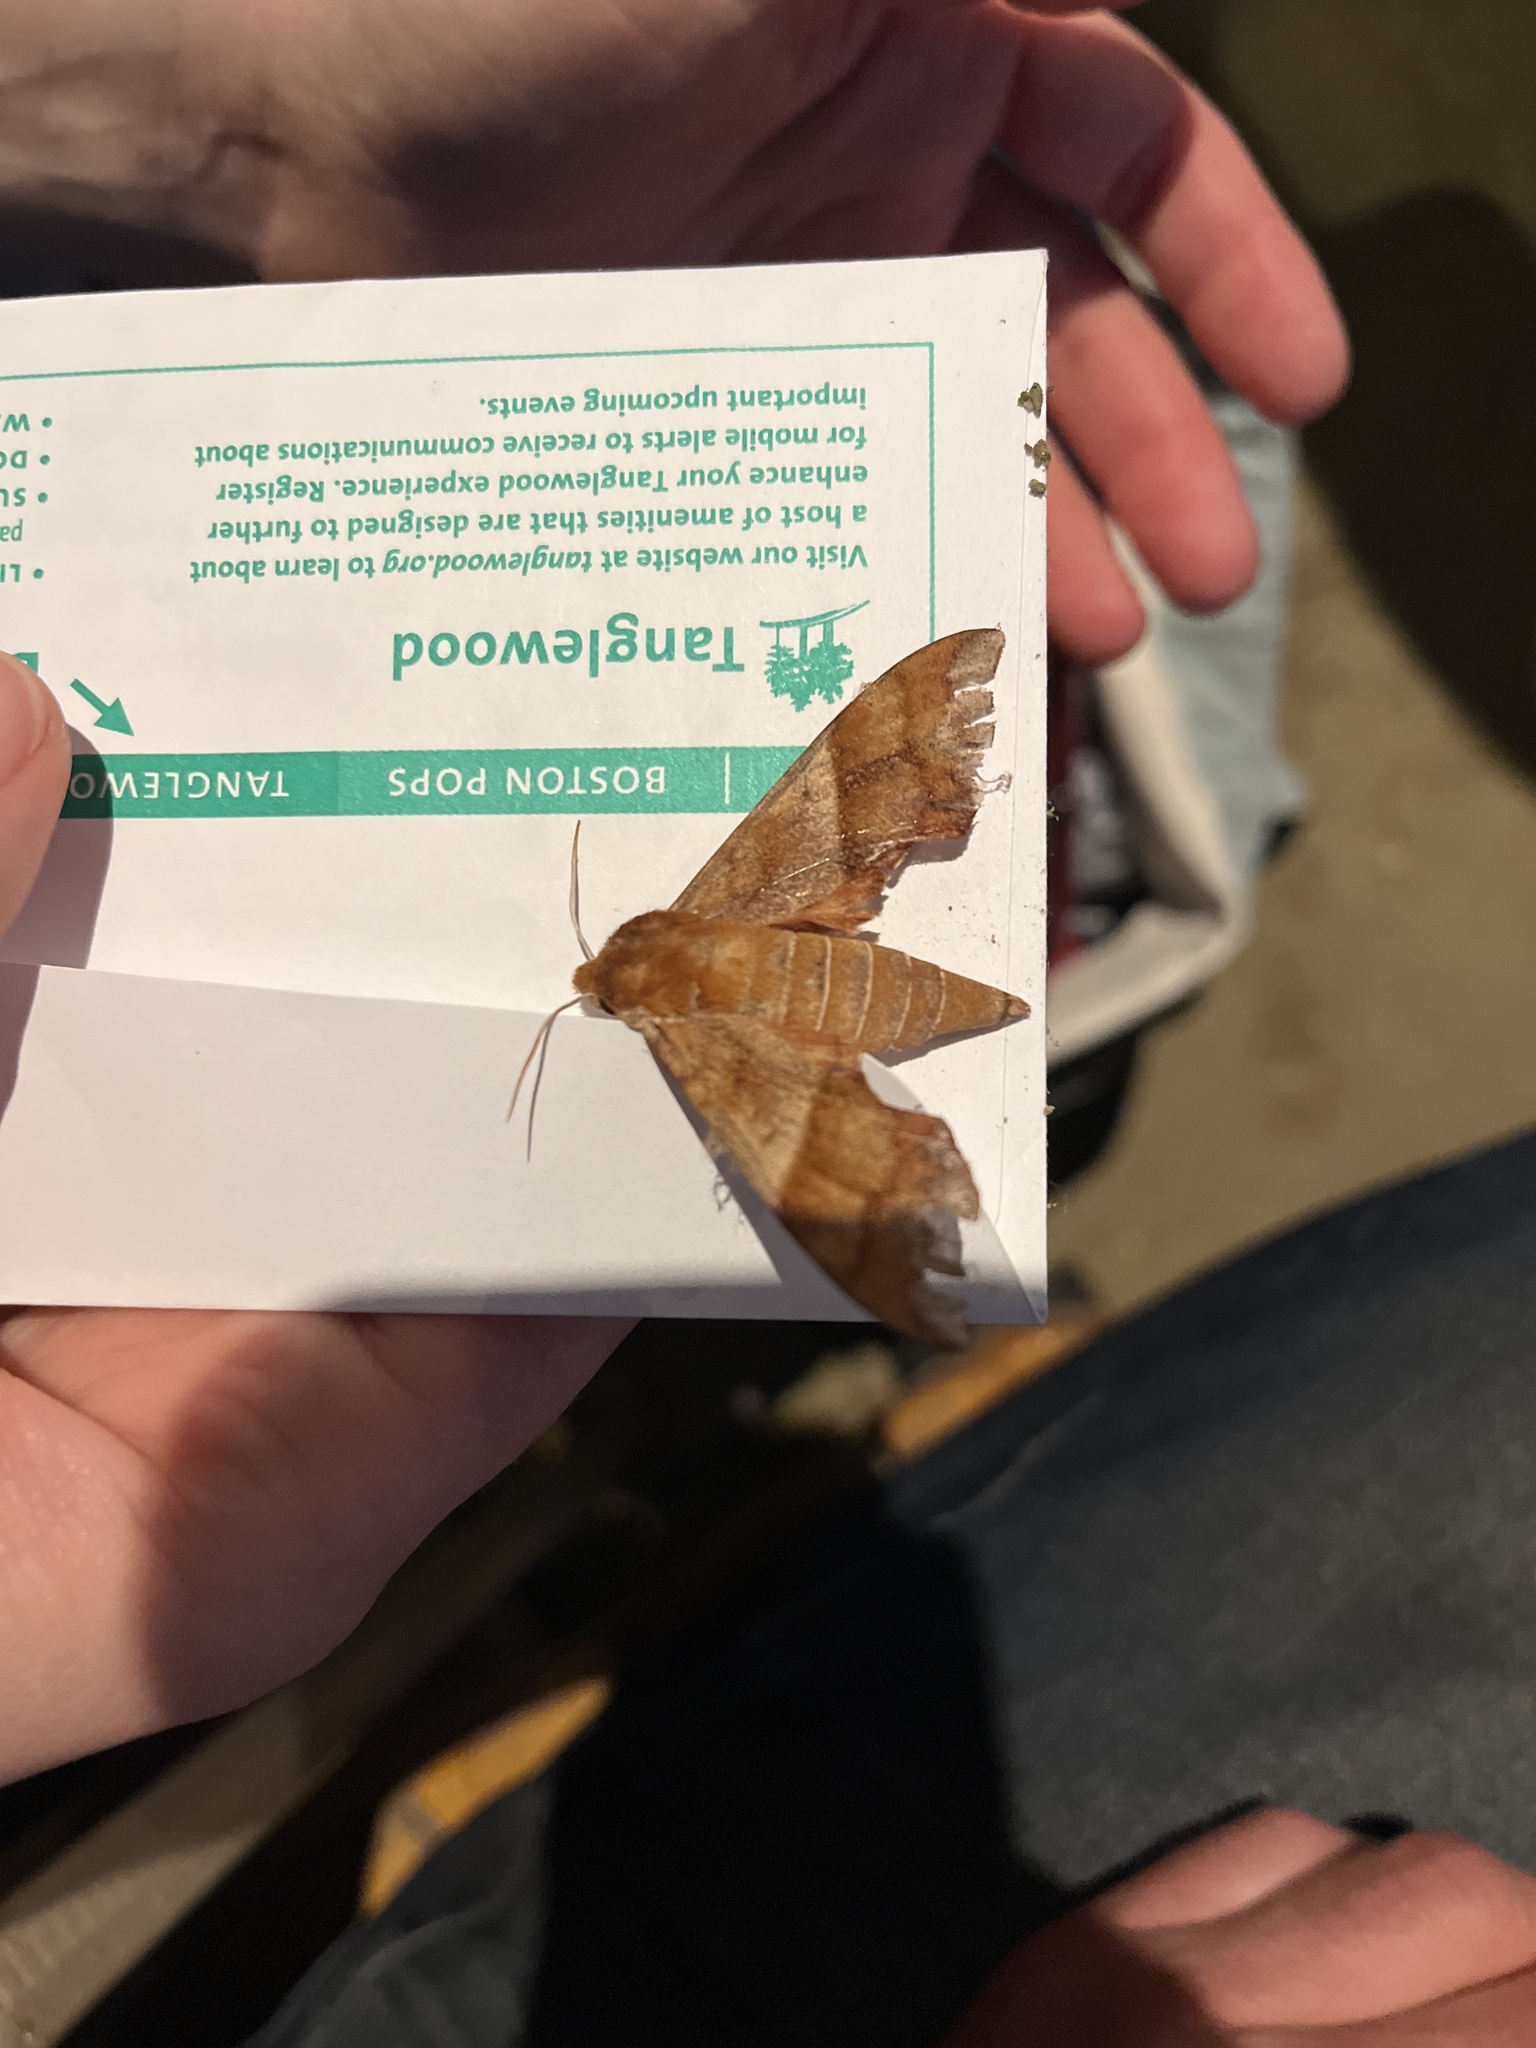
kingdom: Animalia
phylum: Arthropoda
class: Insecta
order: Lepidoptera
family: Sphingidae
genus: Darapsa
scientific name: Darapsa choerilus
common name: Azalea sphinx
